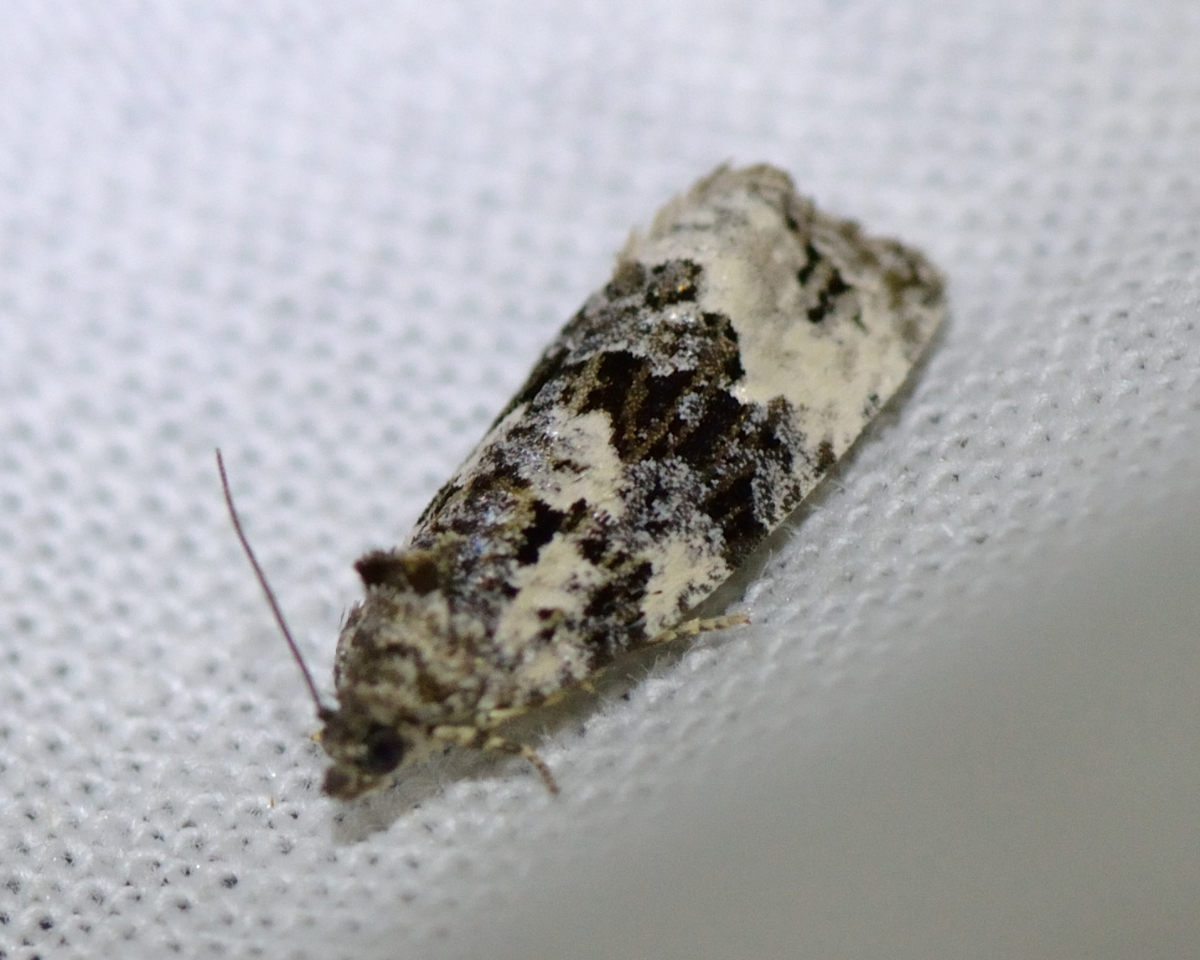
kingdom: Animalia
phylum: Arthropoda
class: Insecta
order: Lepidoptera
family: Tortricidae
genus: Apotomis
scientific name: Apotomis turbidana
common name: White-shouldered marble
